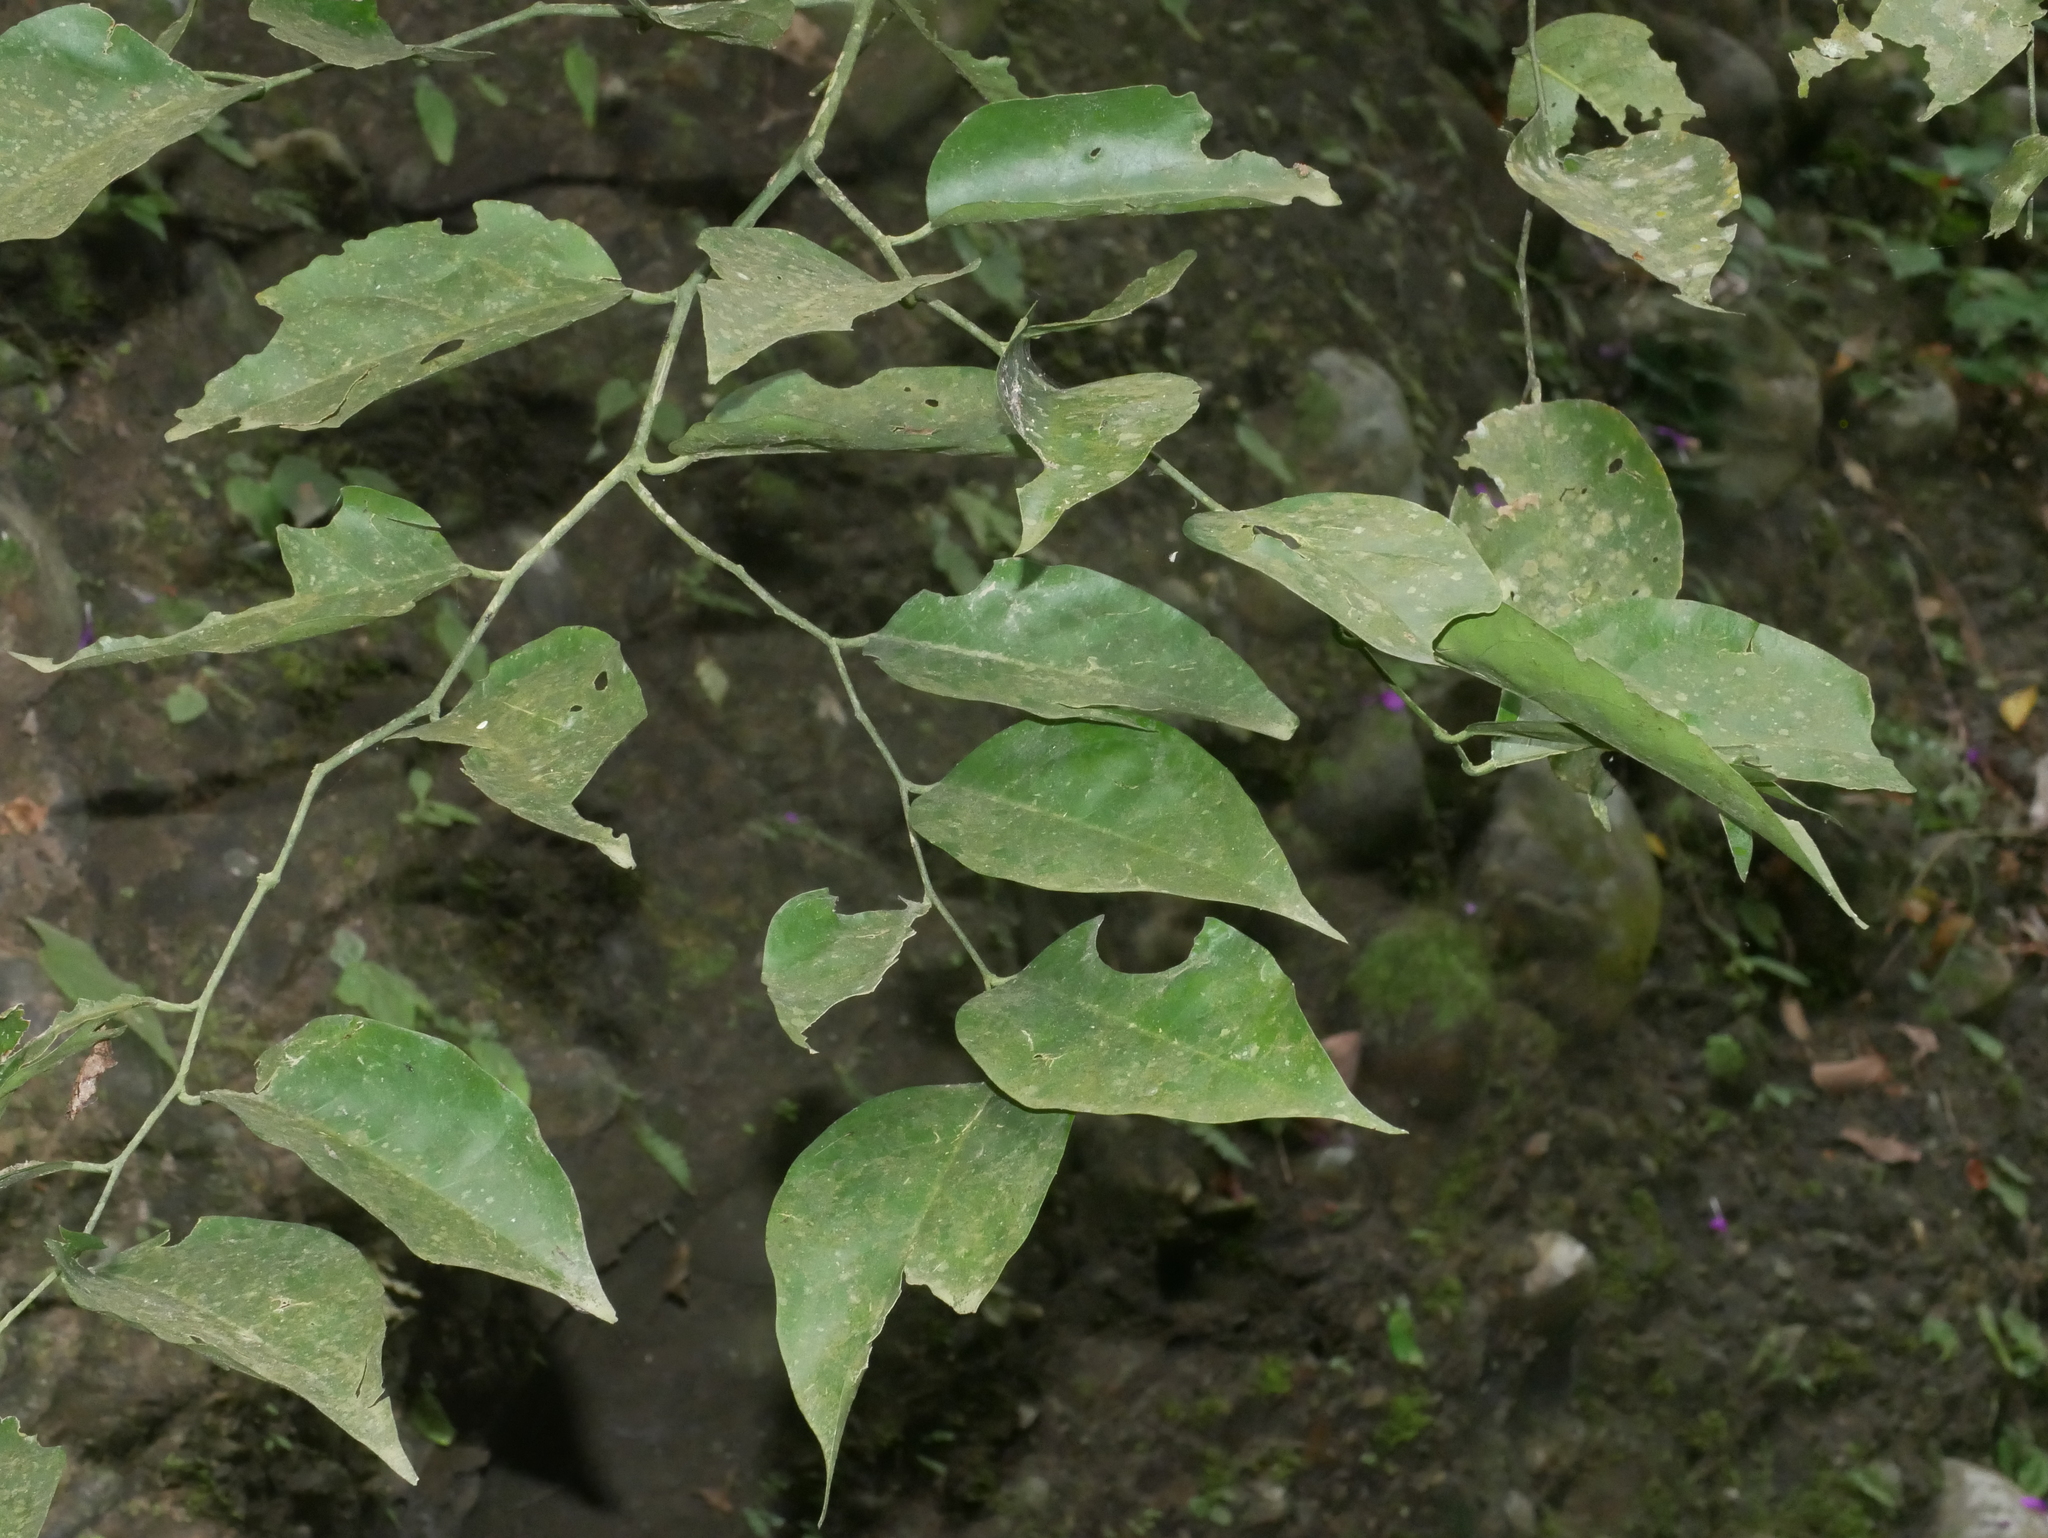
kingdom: Plantae
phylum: Tracheophyta
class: Magnoliopsida
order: Brassicales
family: Capparaceae
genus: Capparis
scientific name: Capparis henryi
